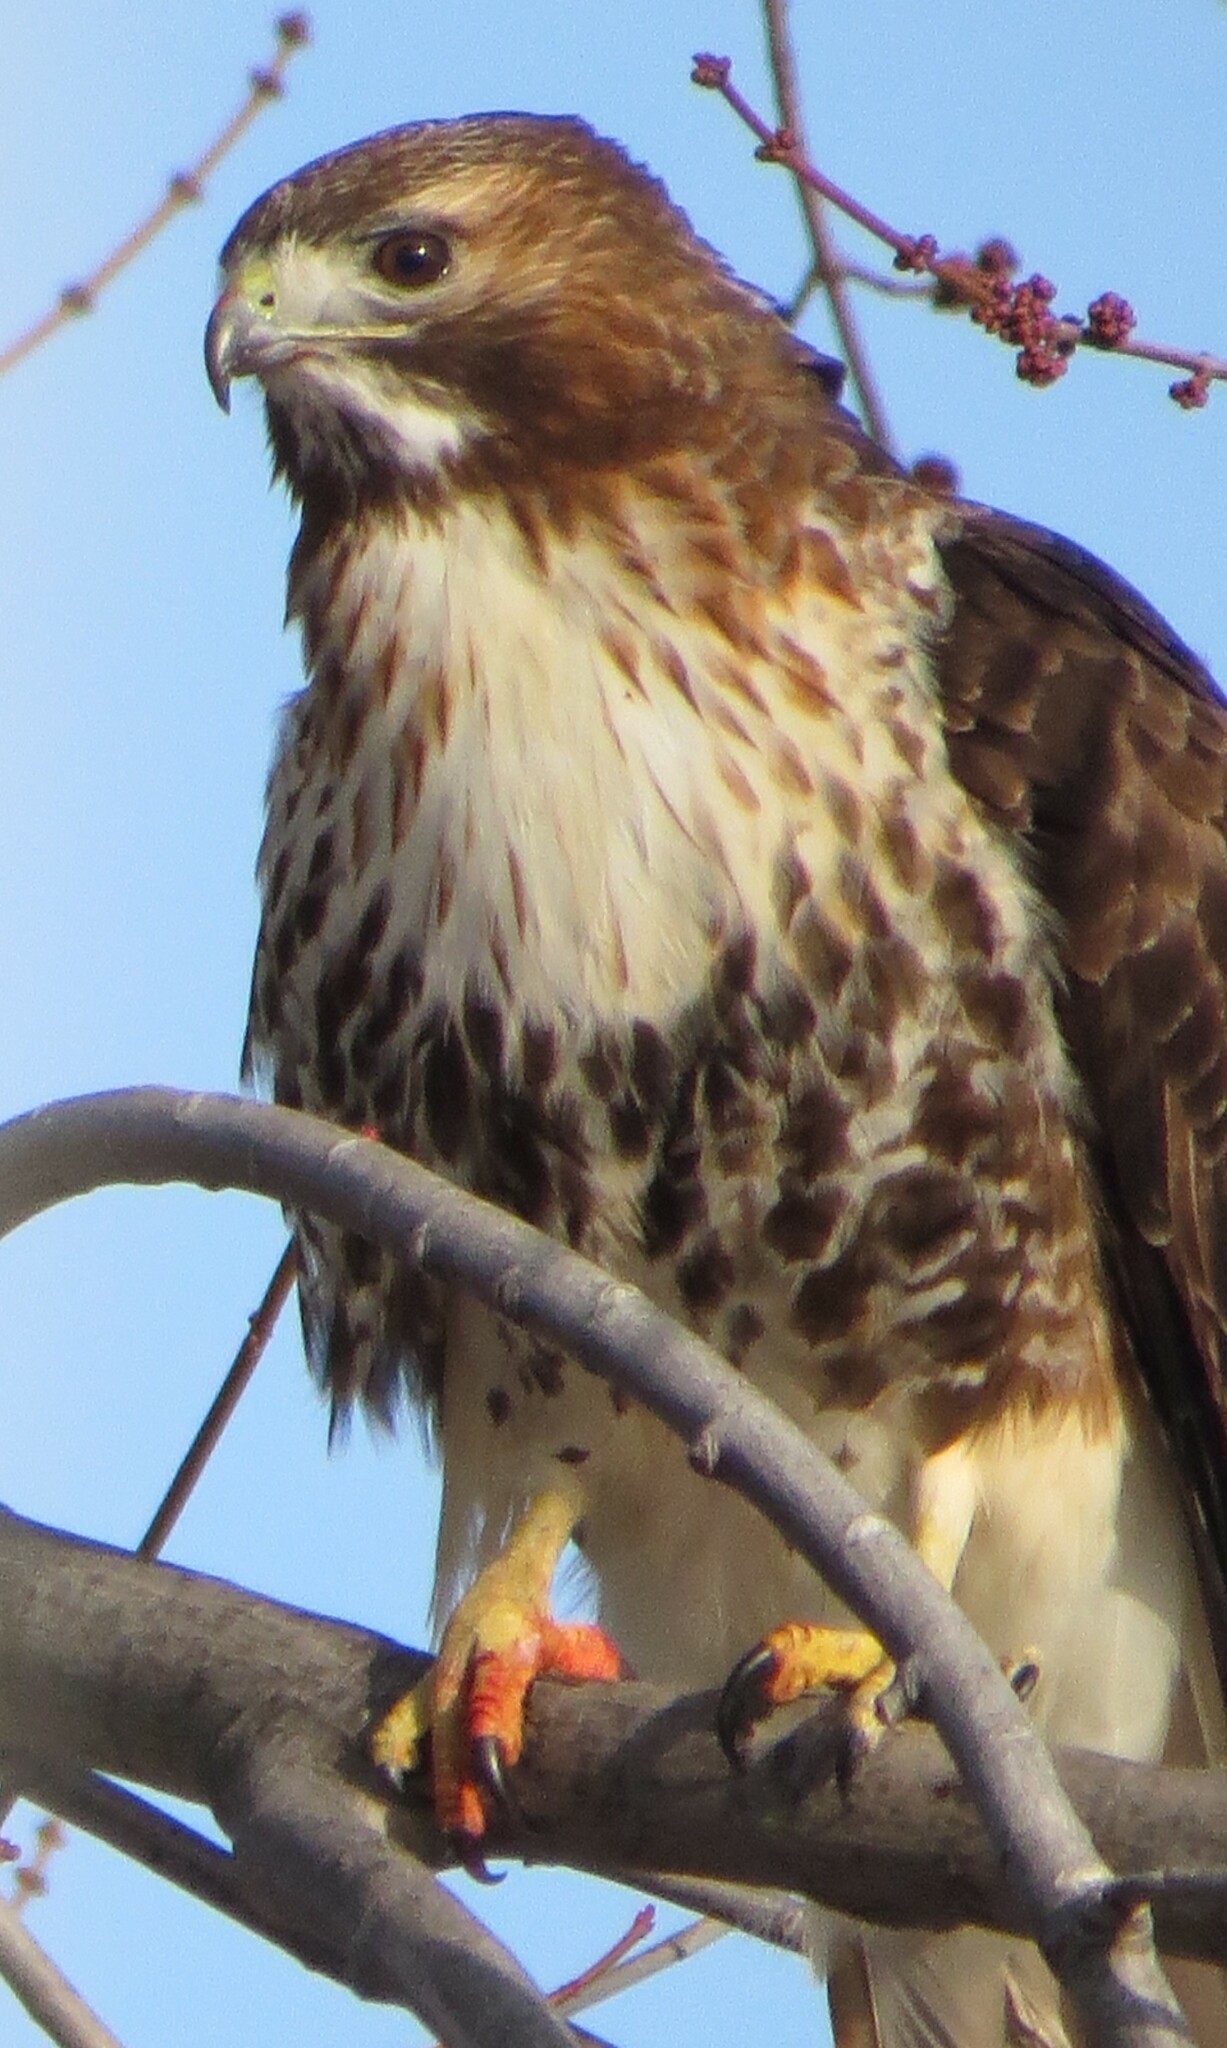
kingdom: Animalia
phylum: Chordata
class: Aves
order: Accipitriformes
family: Accipitridae
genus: Buteo
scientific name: Buteo jamaicensis
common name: Red-tailed hawk
